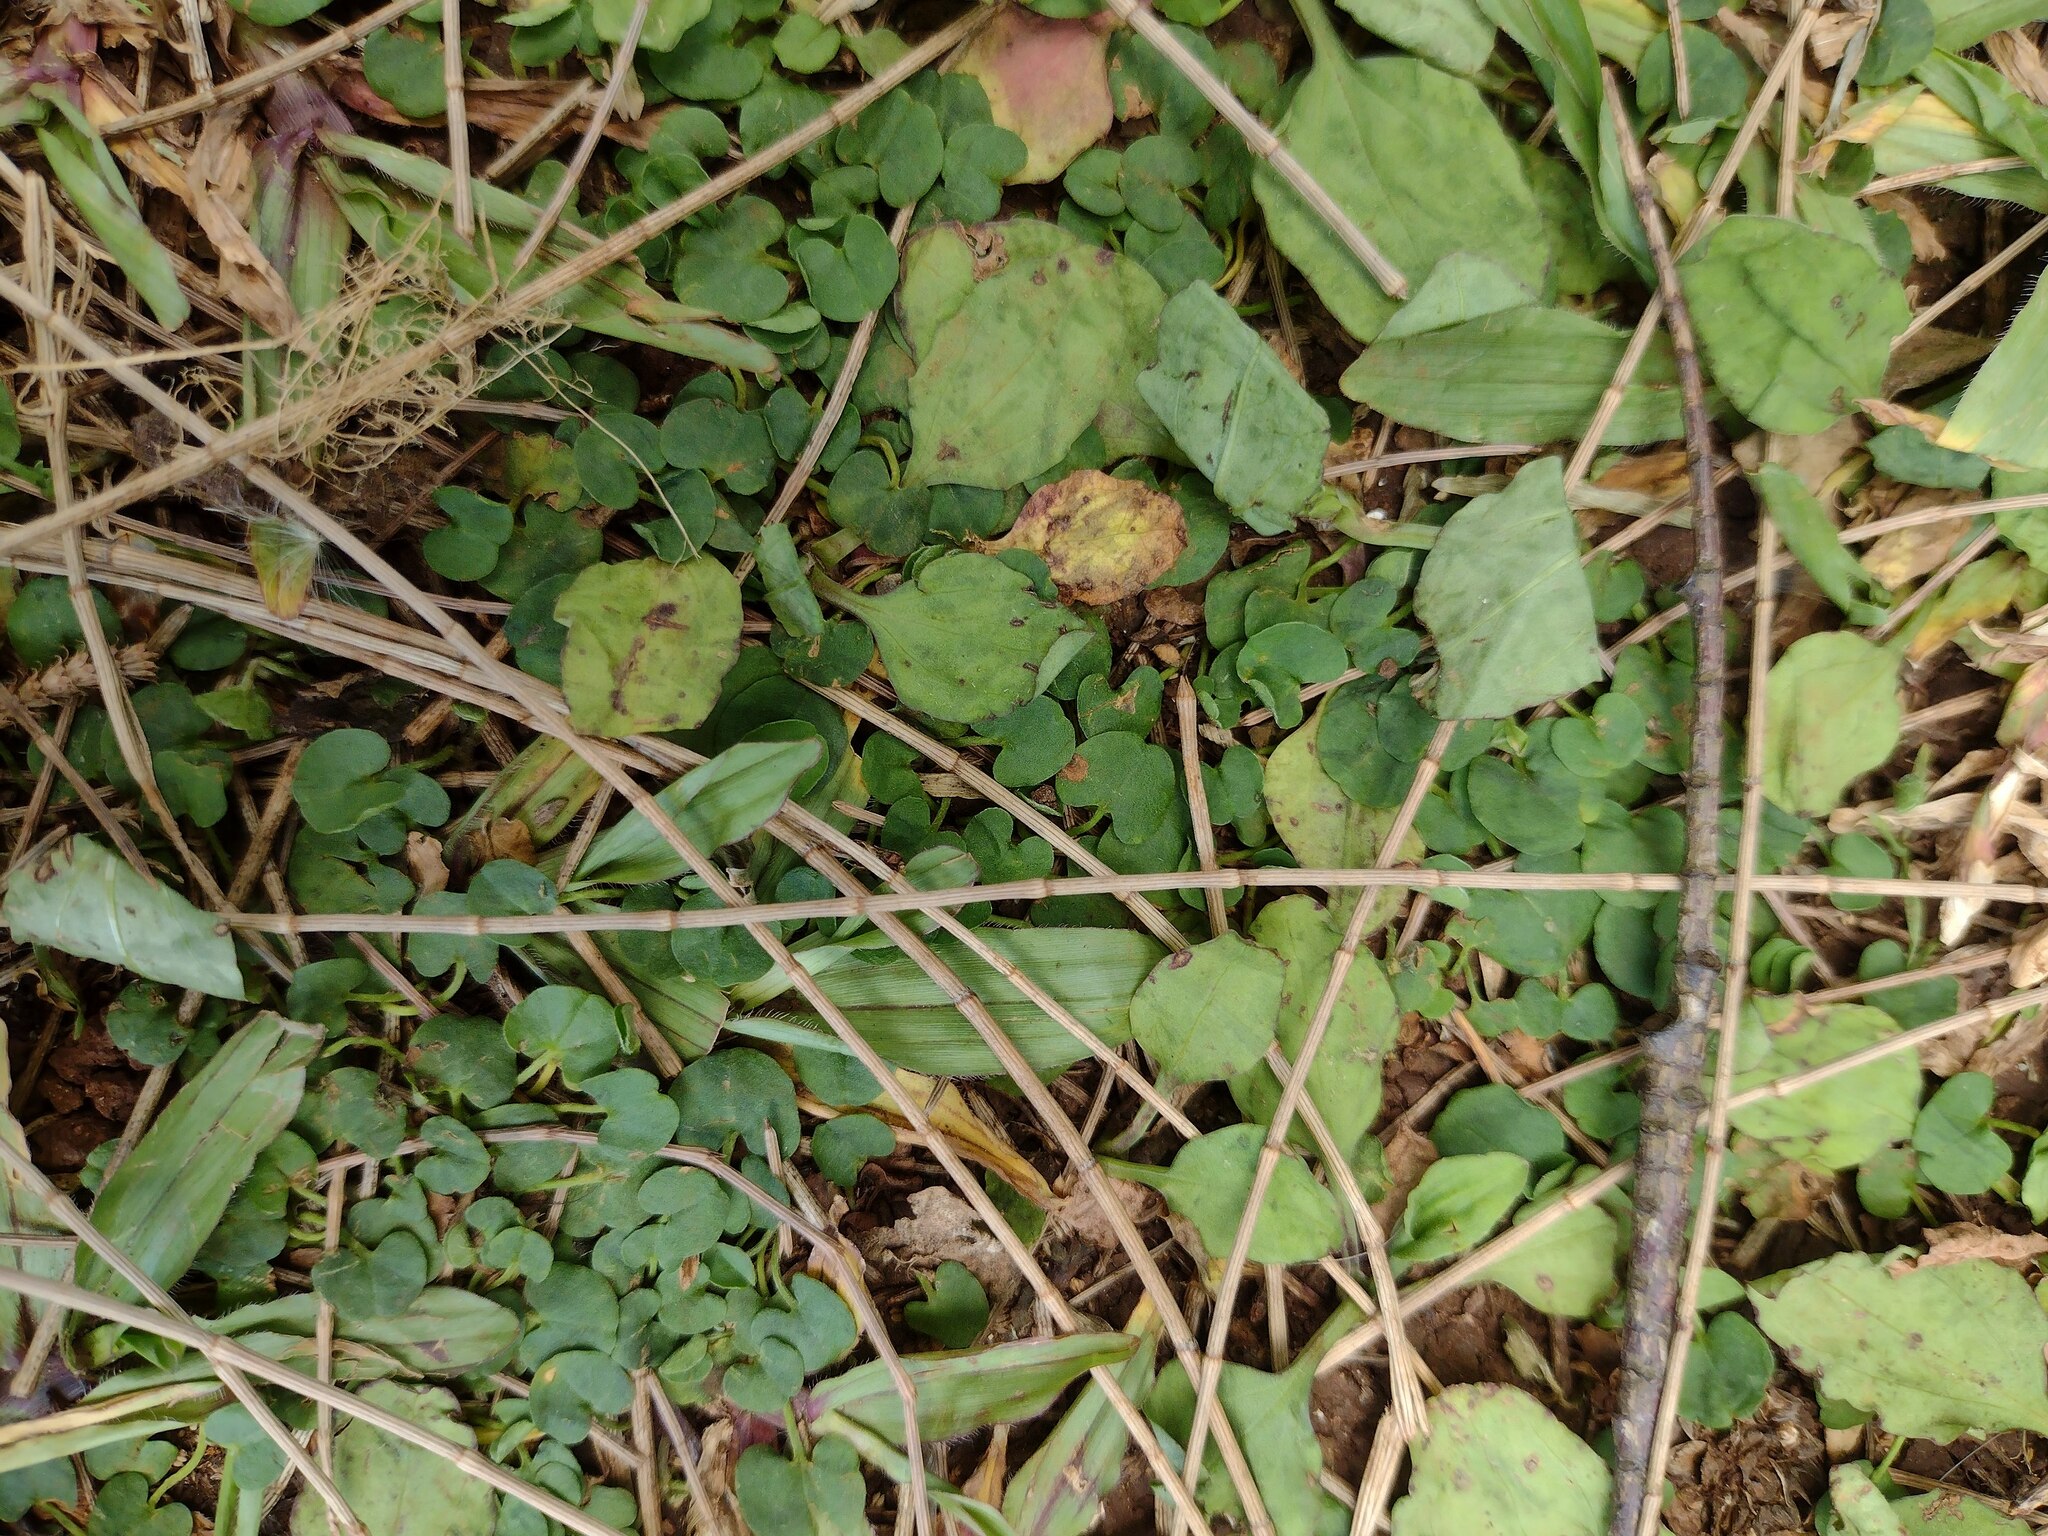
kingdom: Plantae
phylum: Tracheophyta
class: Magnoliopsida
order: Solanales
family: Convolvulaceae
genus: Dichondra
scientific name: Dichondra micrantha
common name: Kidneyweed
